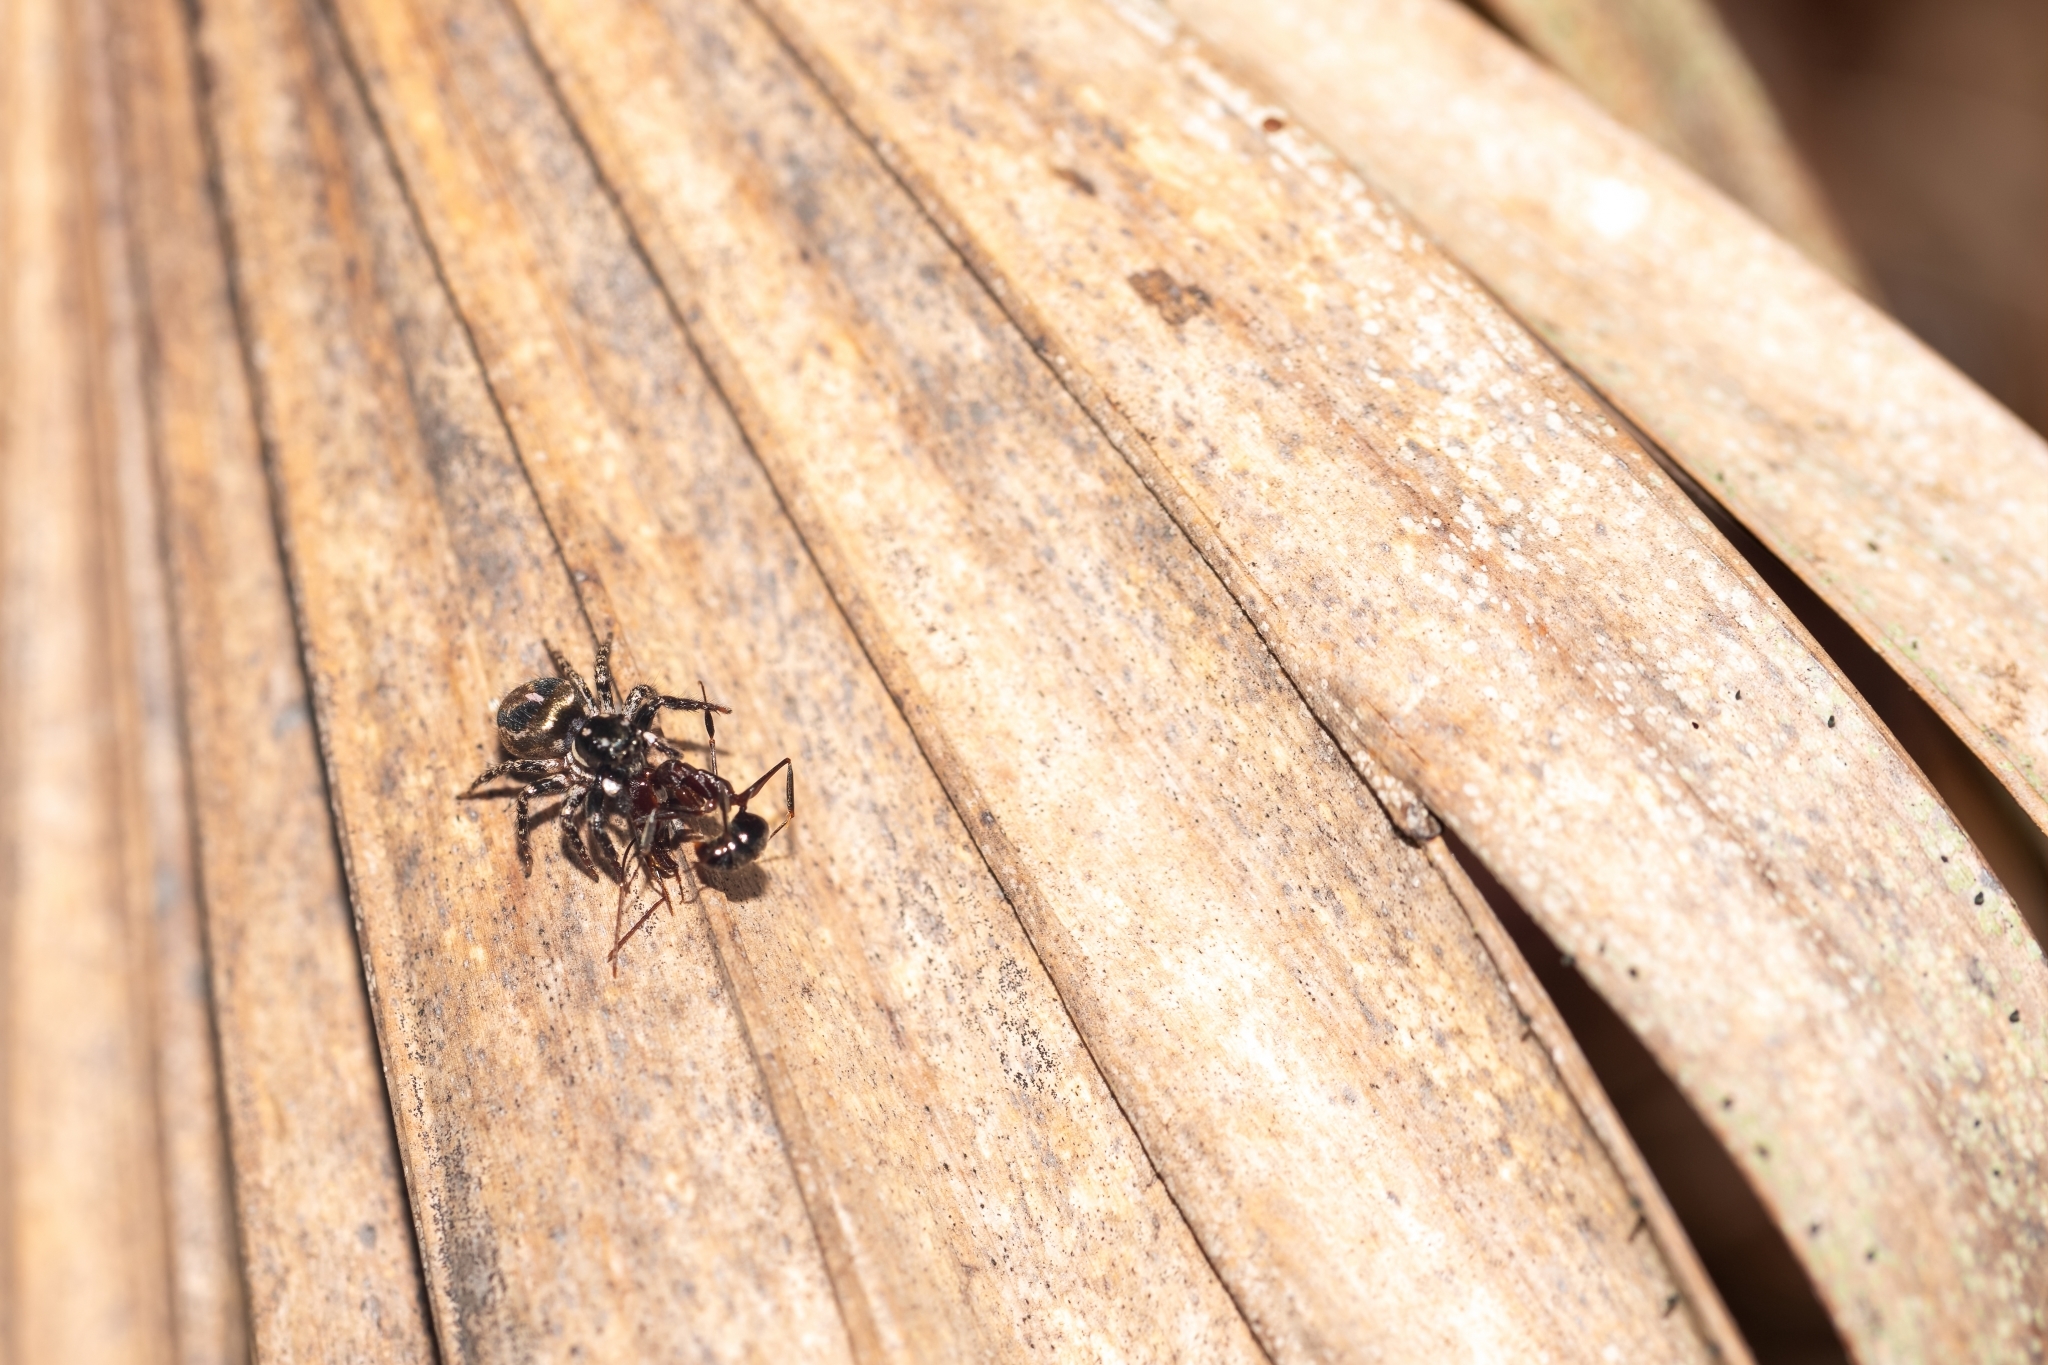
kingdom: Animalia
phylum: Arthropoda
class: Arachnida
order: Araneae
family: Salticidae
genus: Anasaitis
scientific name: Anasaitis canosa
